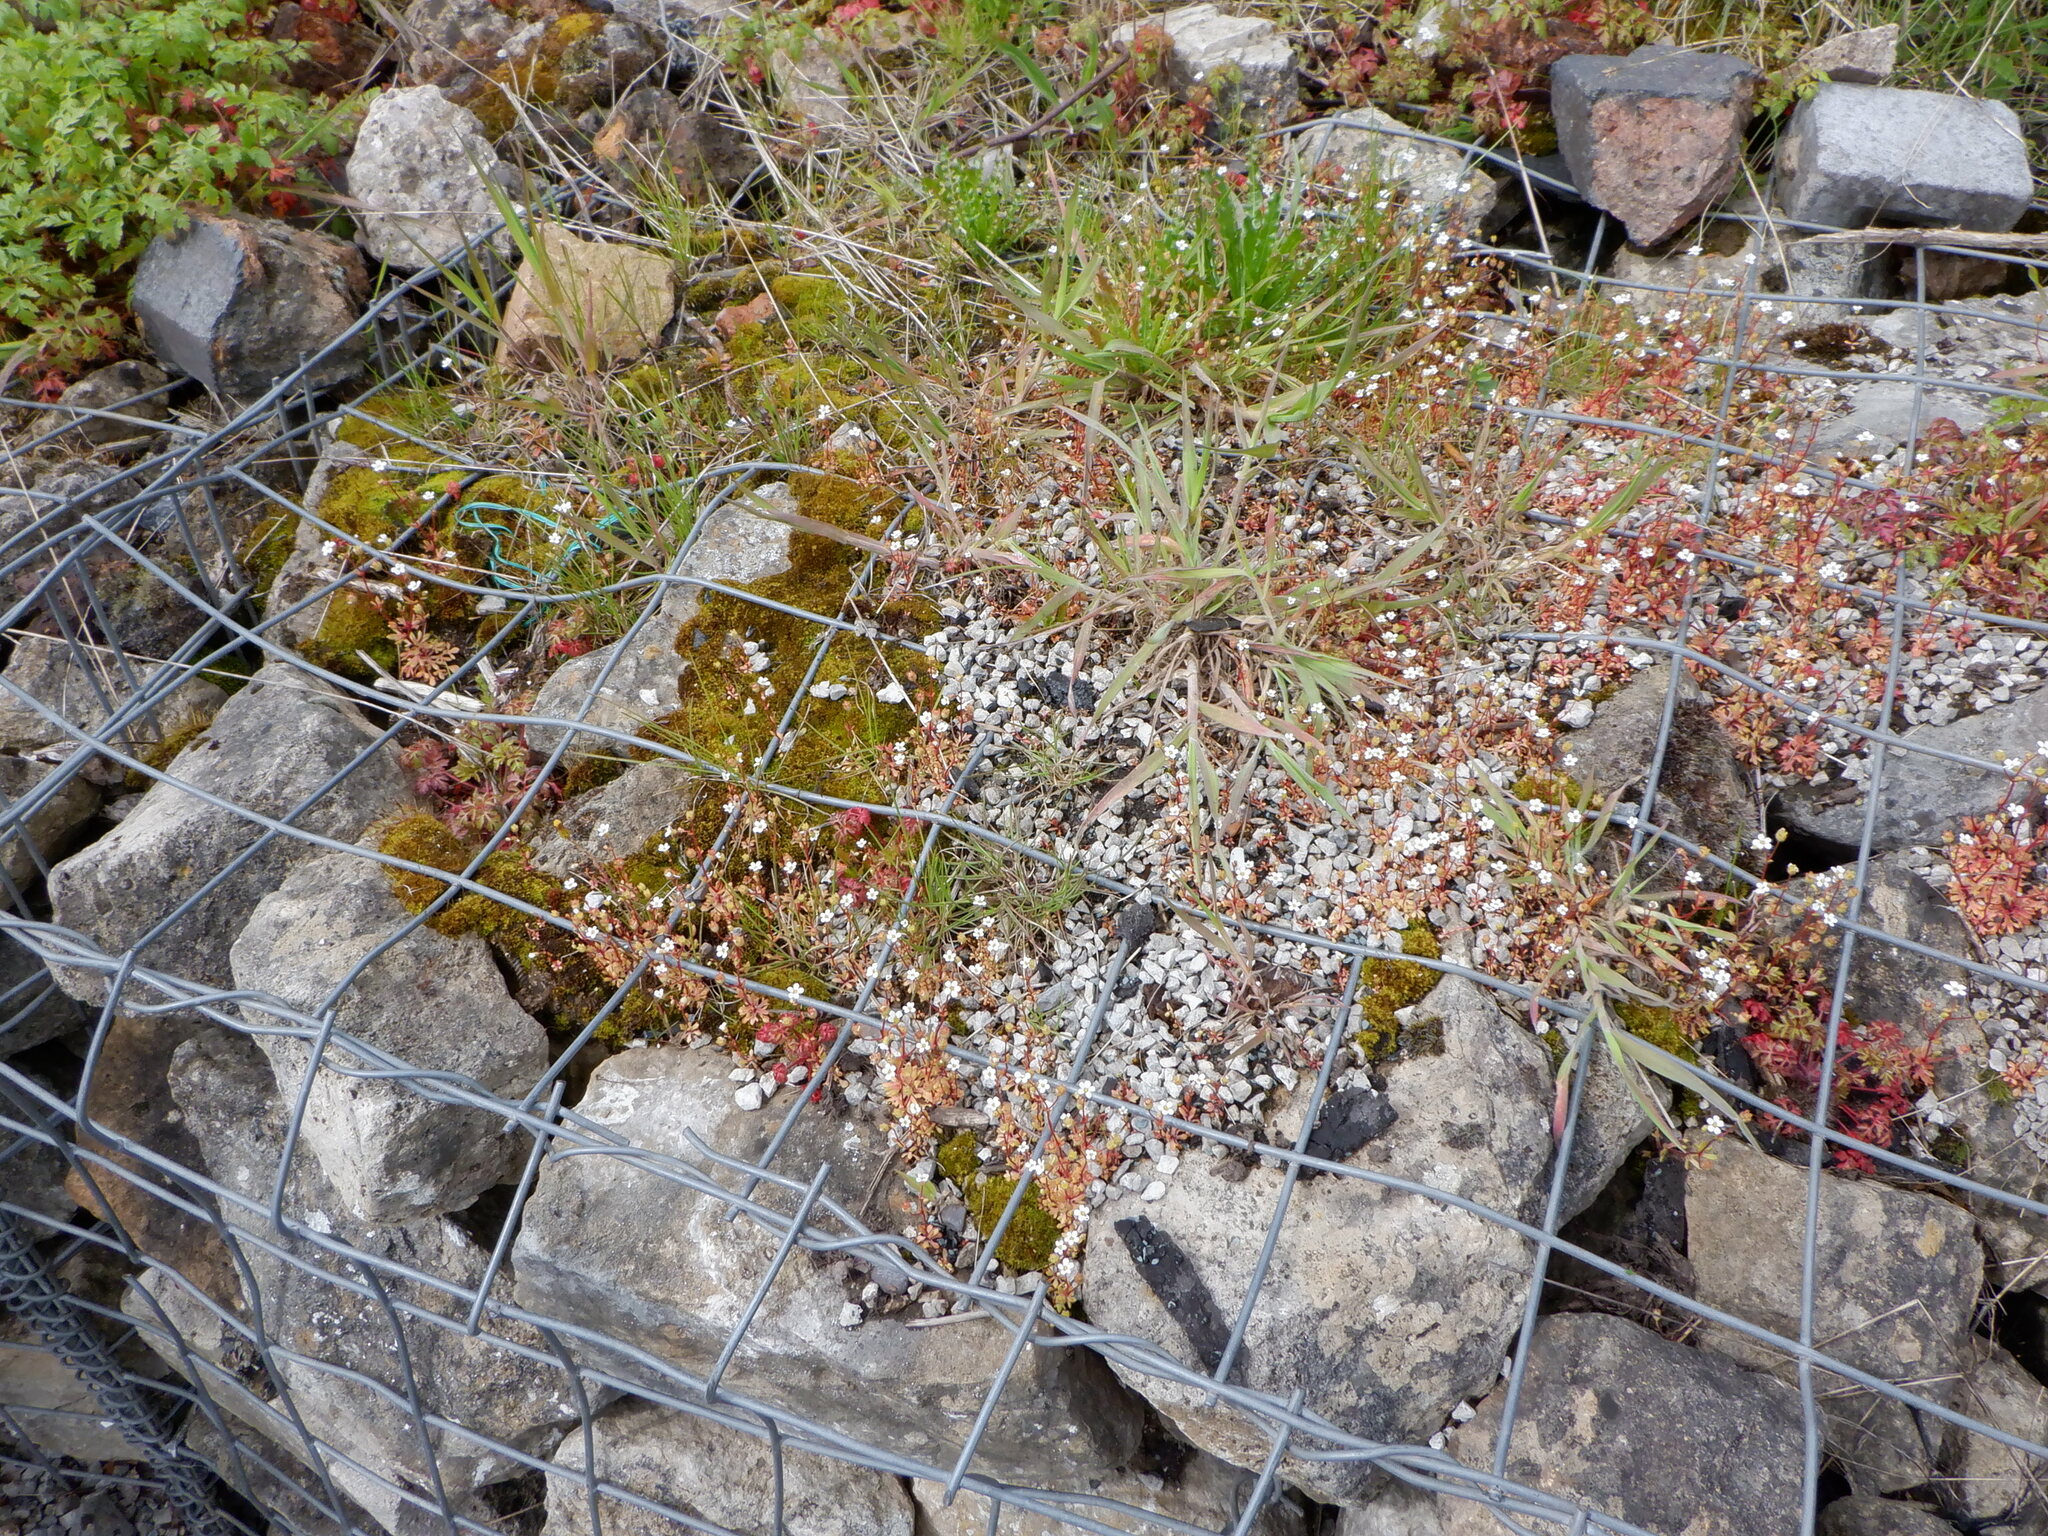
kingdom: Plantae
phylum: Tracheophyta
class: Magnoliopsida
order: Saxifragales
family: Saxifragaceae
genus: Saxifraga
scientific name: Saxifraga tridactylites
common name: Rue-leaved saxifrage
